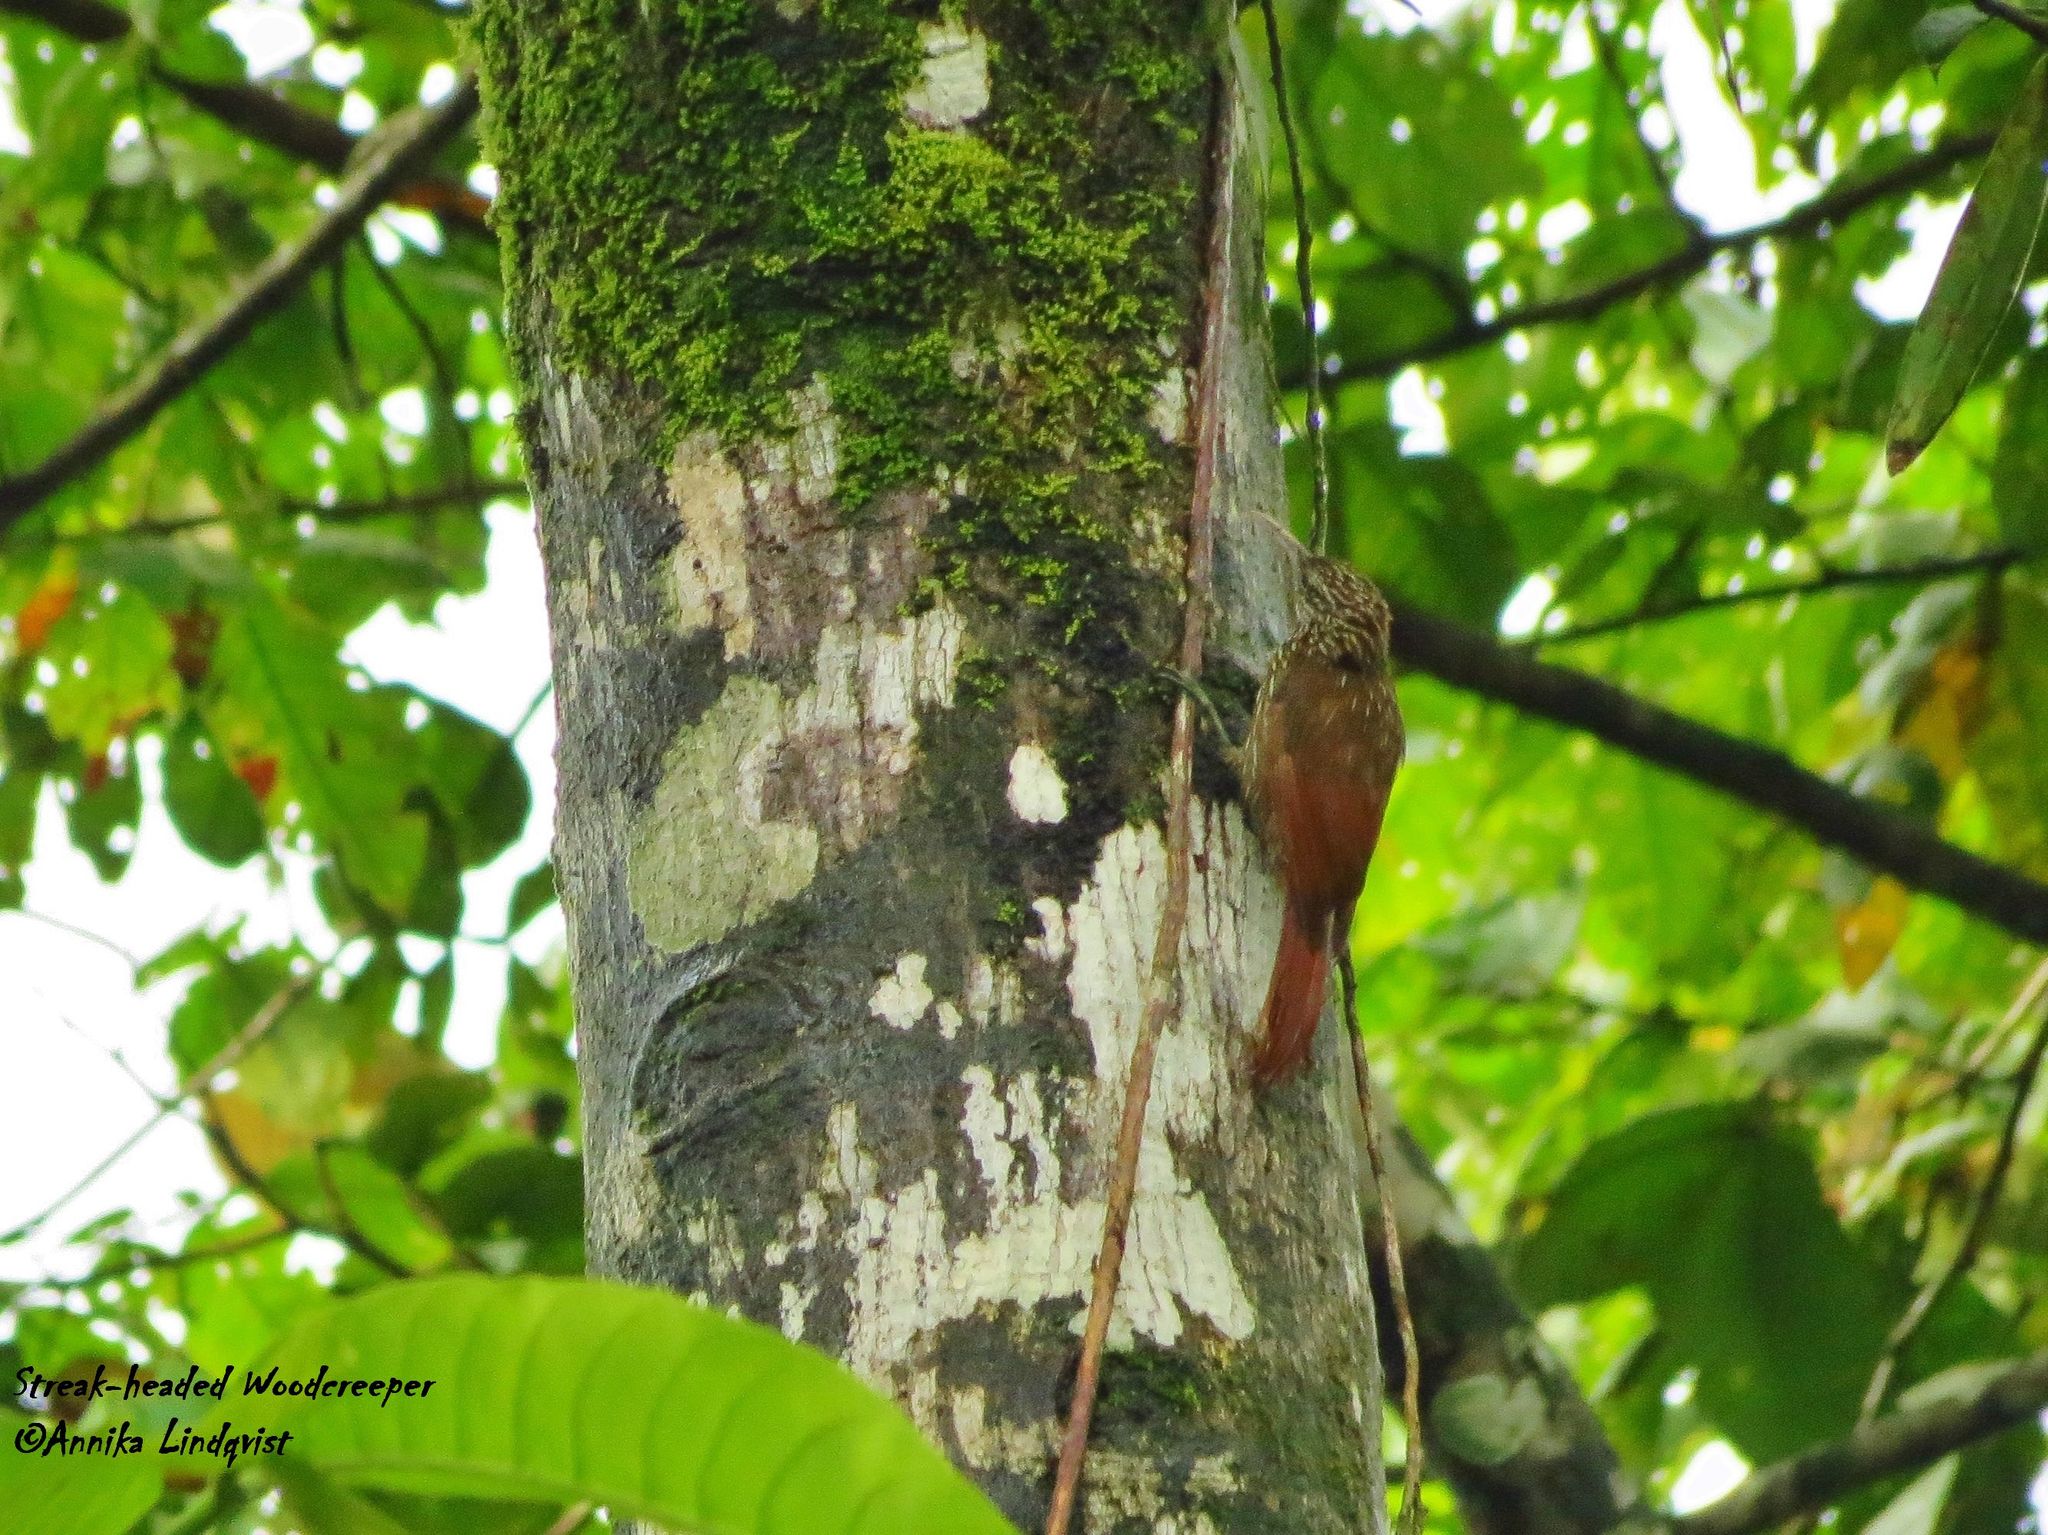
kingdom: Animalia
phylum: Chordata
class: Aves
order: Passeriformes
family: Furnariidae
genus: Lepidocolaptes
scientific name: Lepidocolaptes souleyetii
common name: Streak-headed woodcreeper
